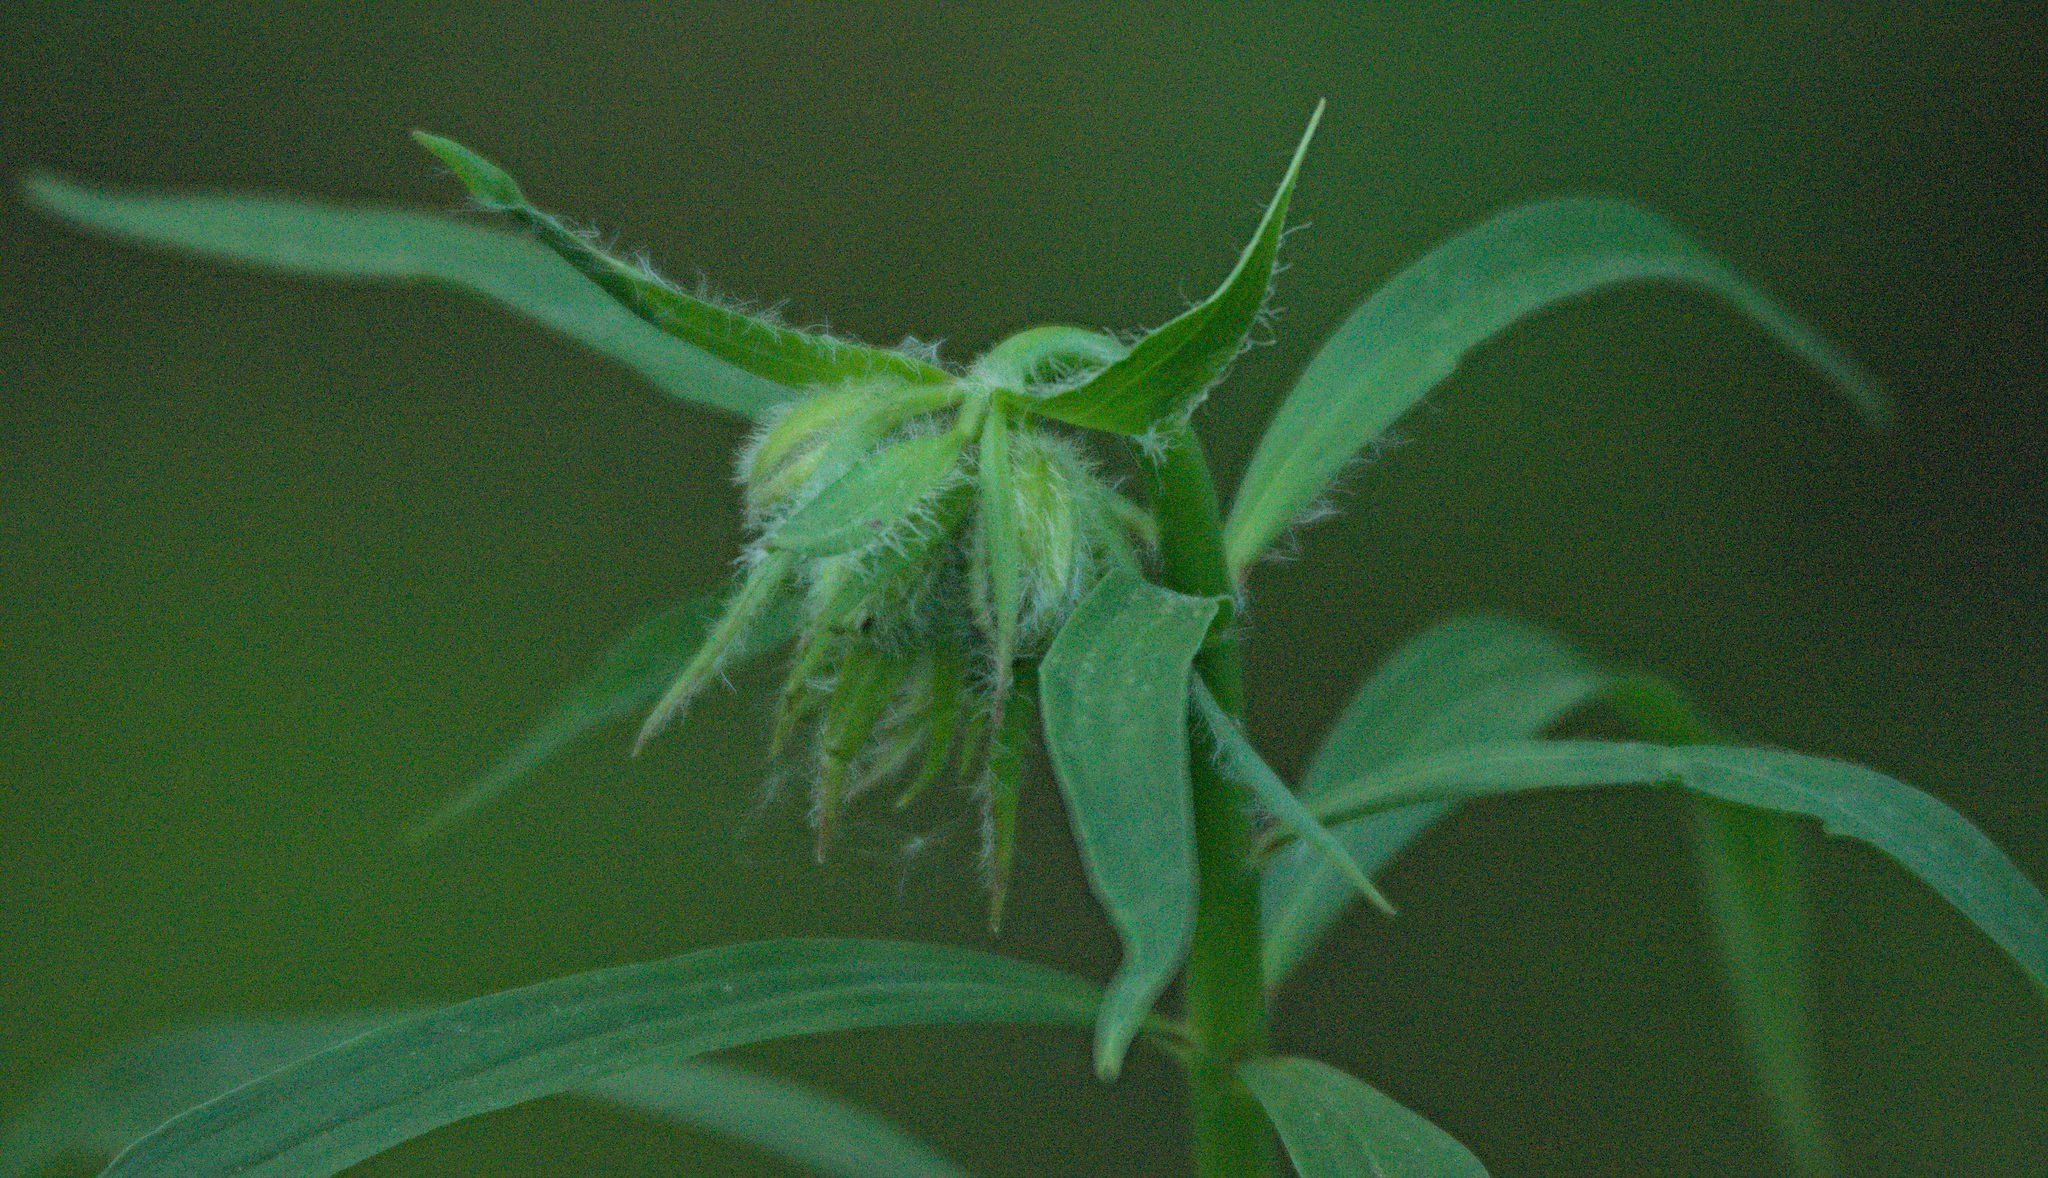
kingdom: Plantae
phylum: Tracheophyta
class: Liliopsida
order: Liliales
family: Liliaceae
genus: Lilium
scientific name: Lilium martagon
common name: Martagon lily
